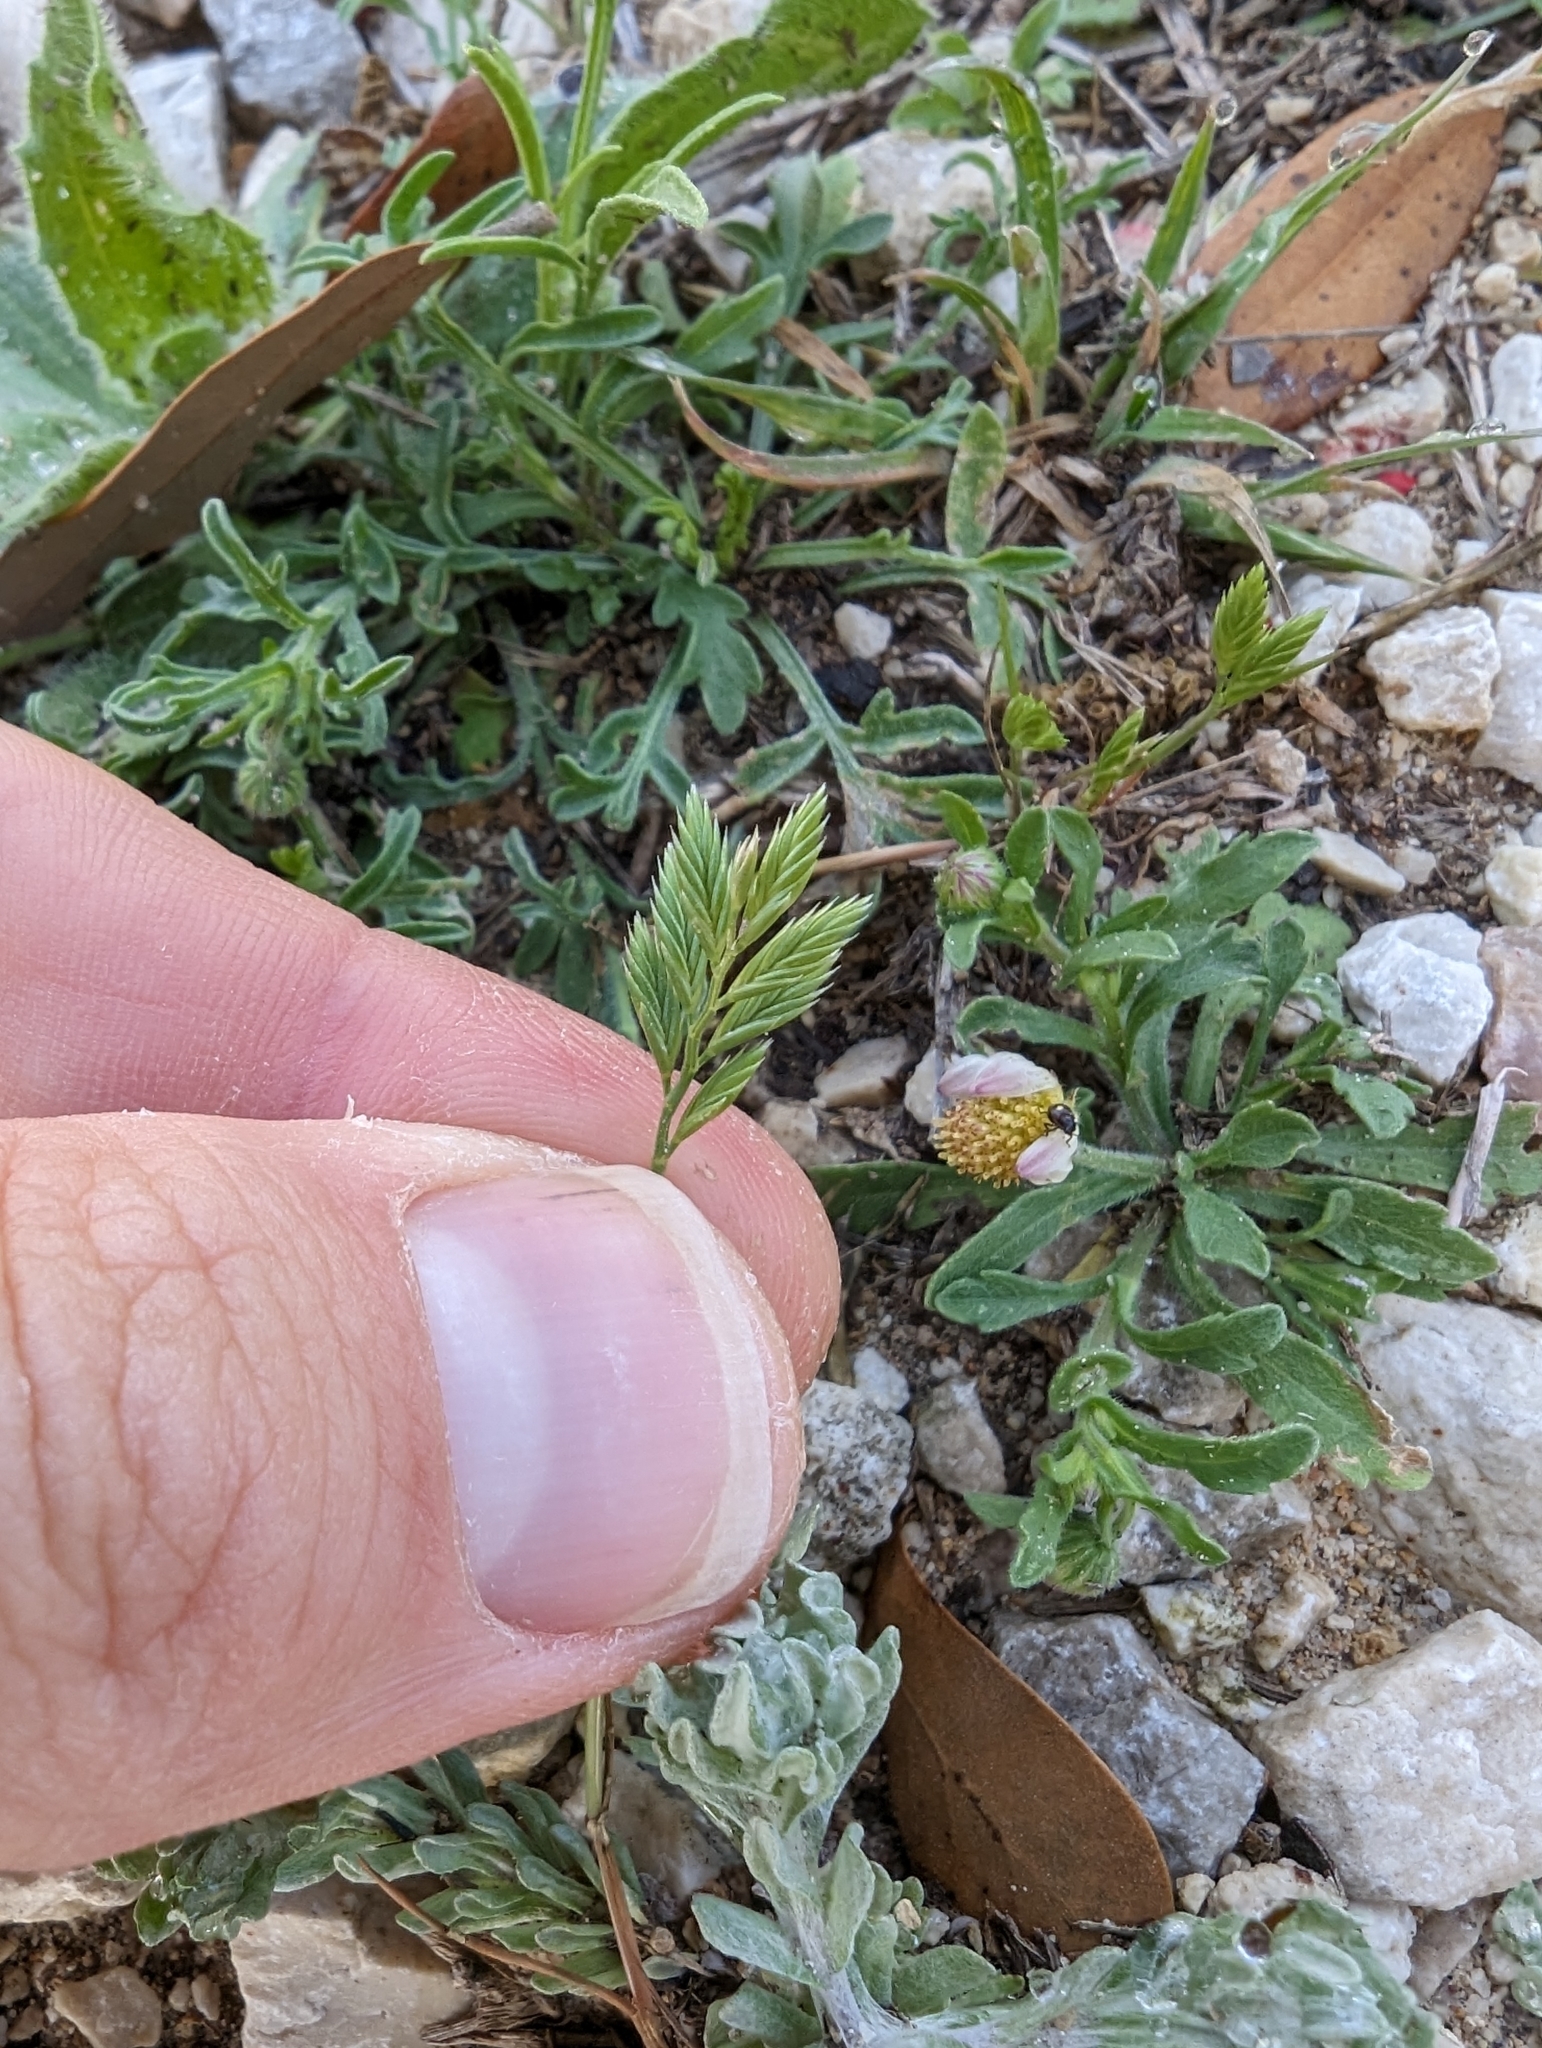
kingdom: Plantae
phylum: Tracheophyta
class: Liliopsida
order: Poales
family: Poaceae
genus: Festuca
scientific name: Festuca octoflora
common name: Sixweeks grass
